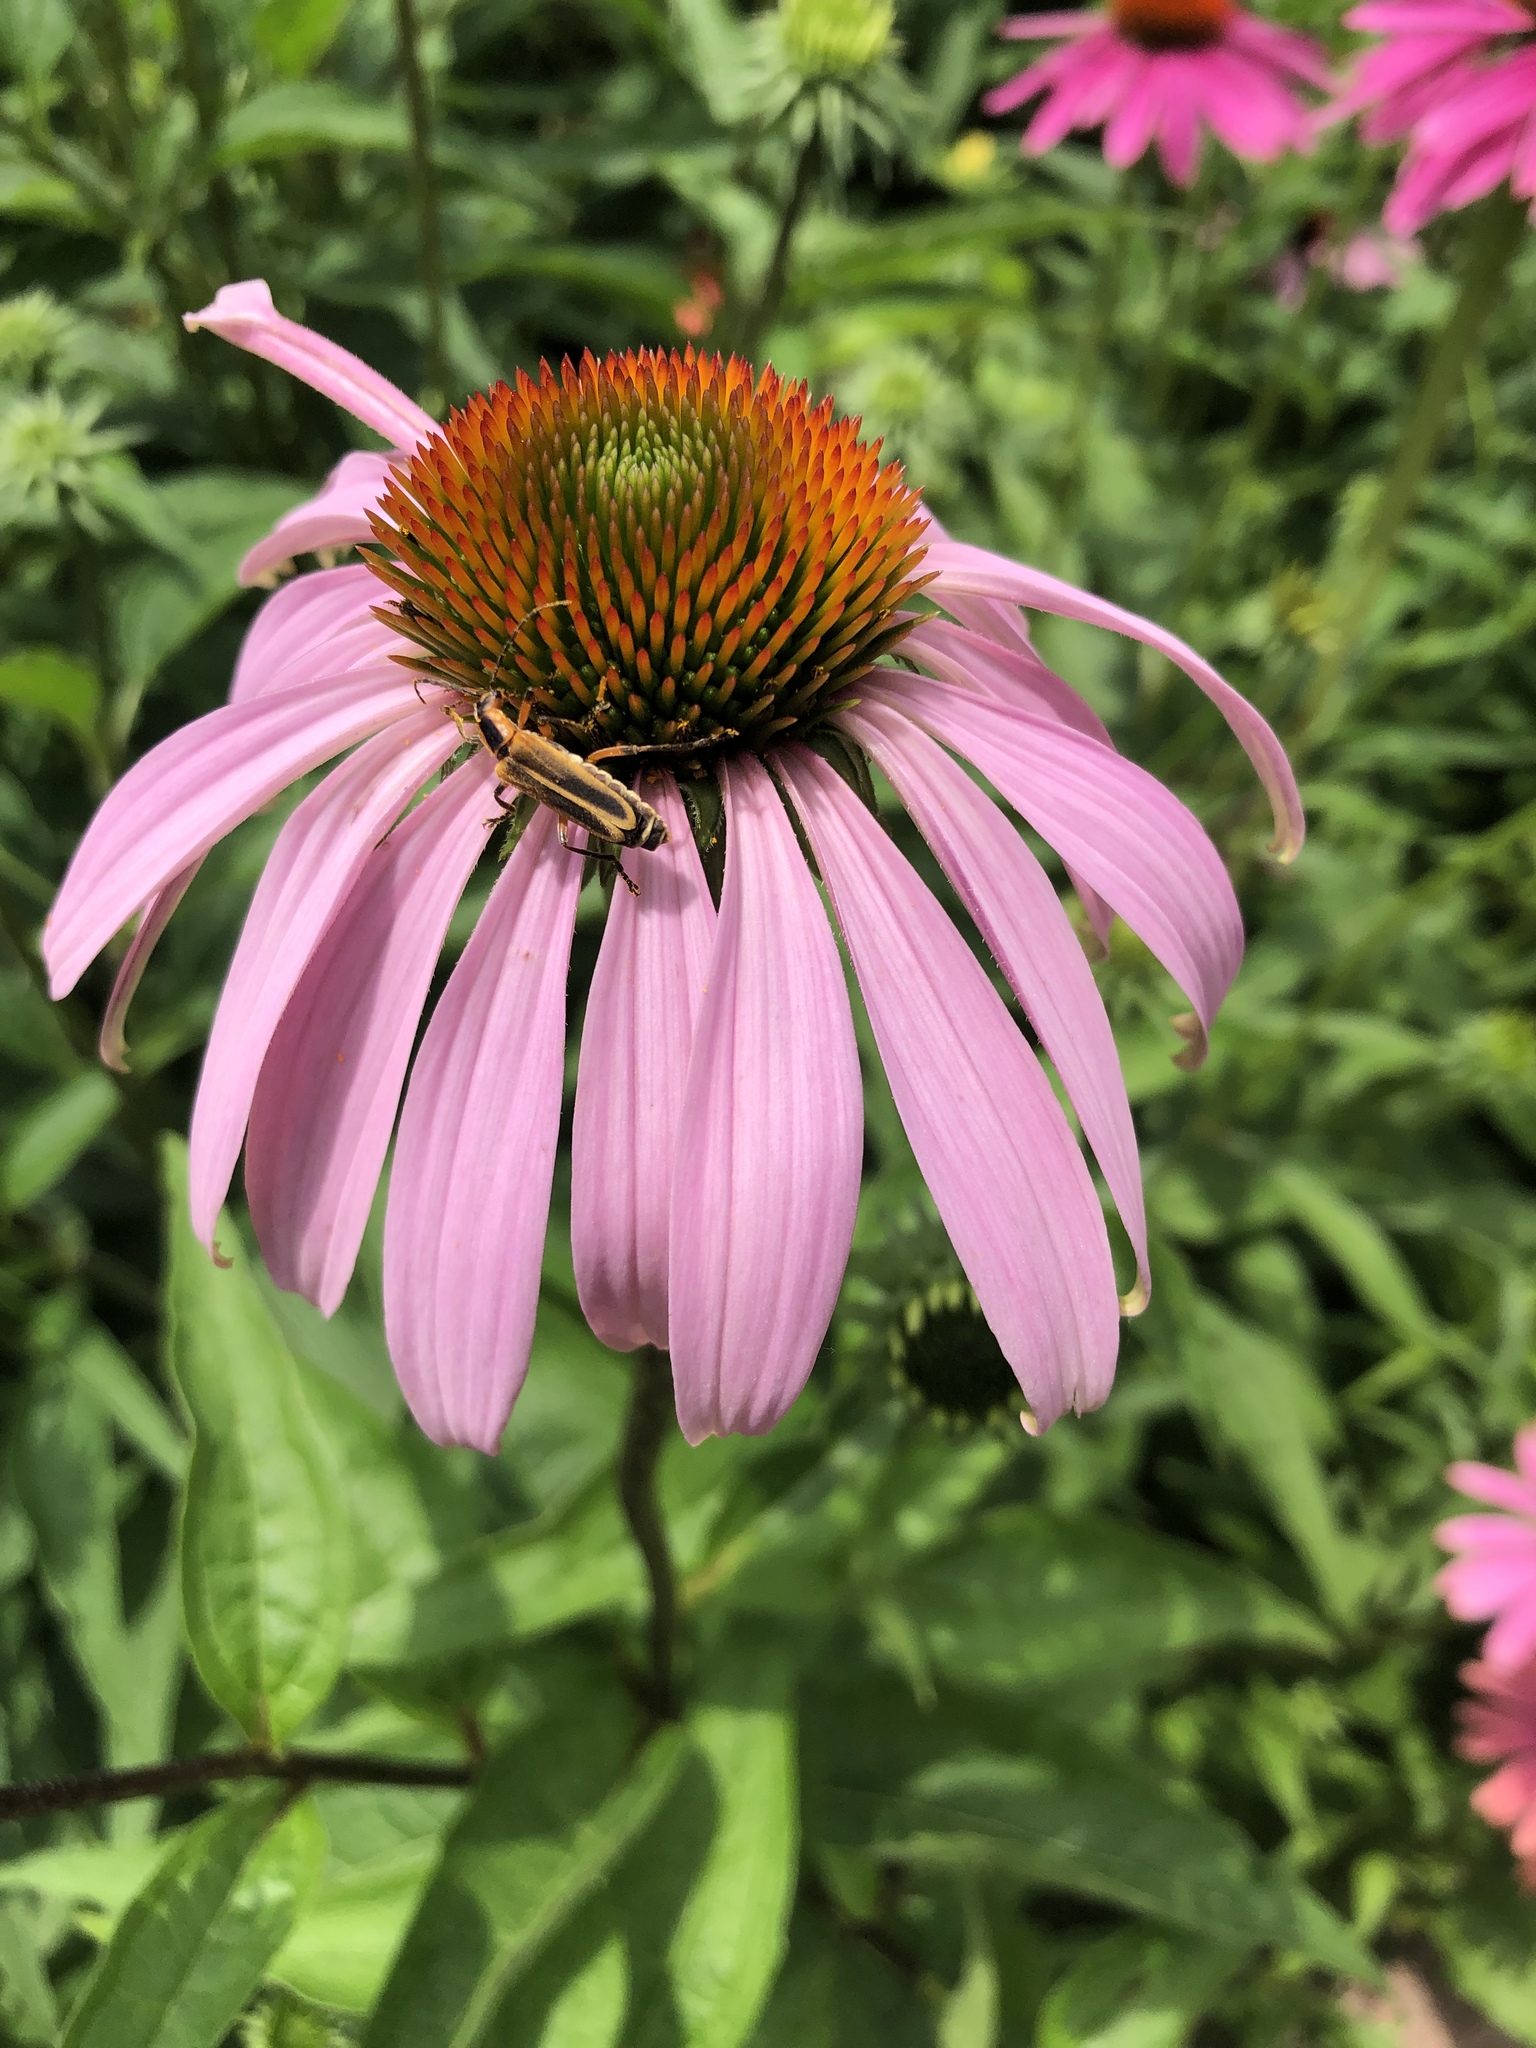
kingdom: Animalia
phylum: Arthropoda
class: Insecta
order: Coleoptera
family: Cantharidae
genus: Chauliognathus
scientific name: Chauliognathus marginatus
